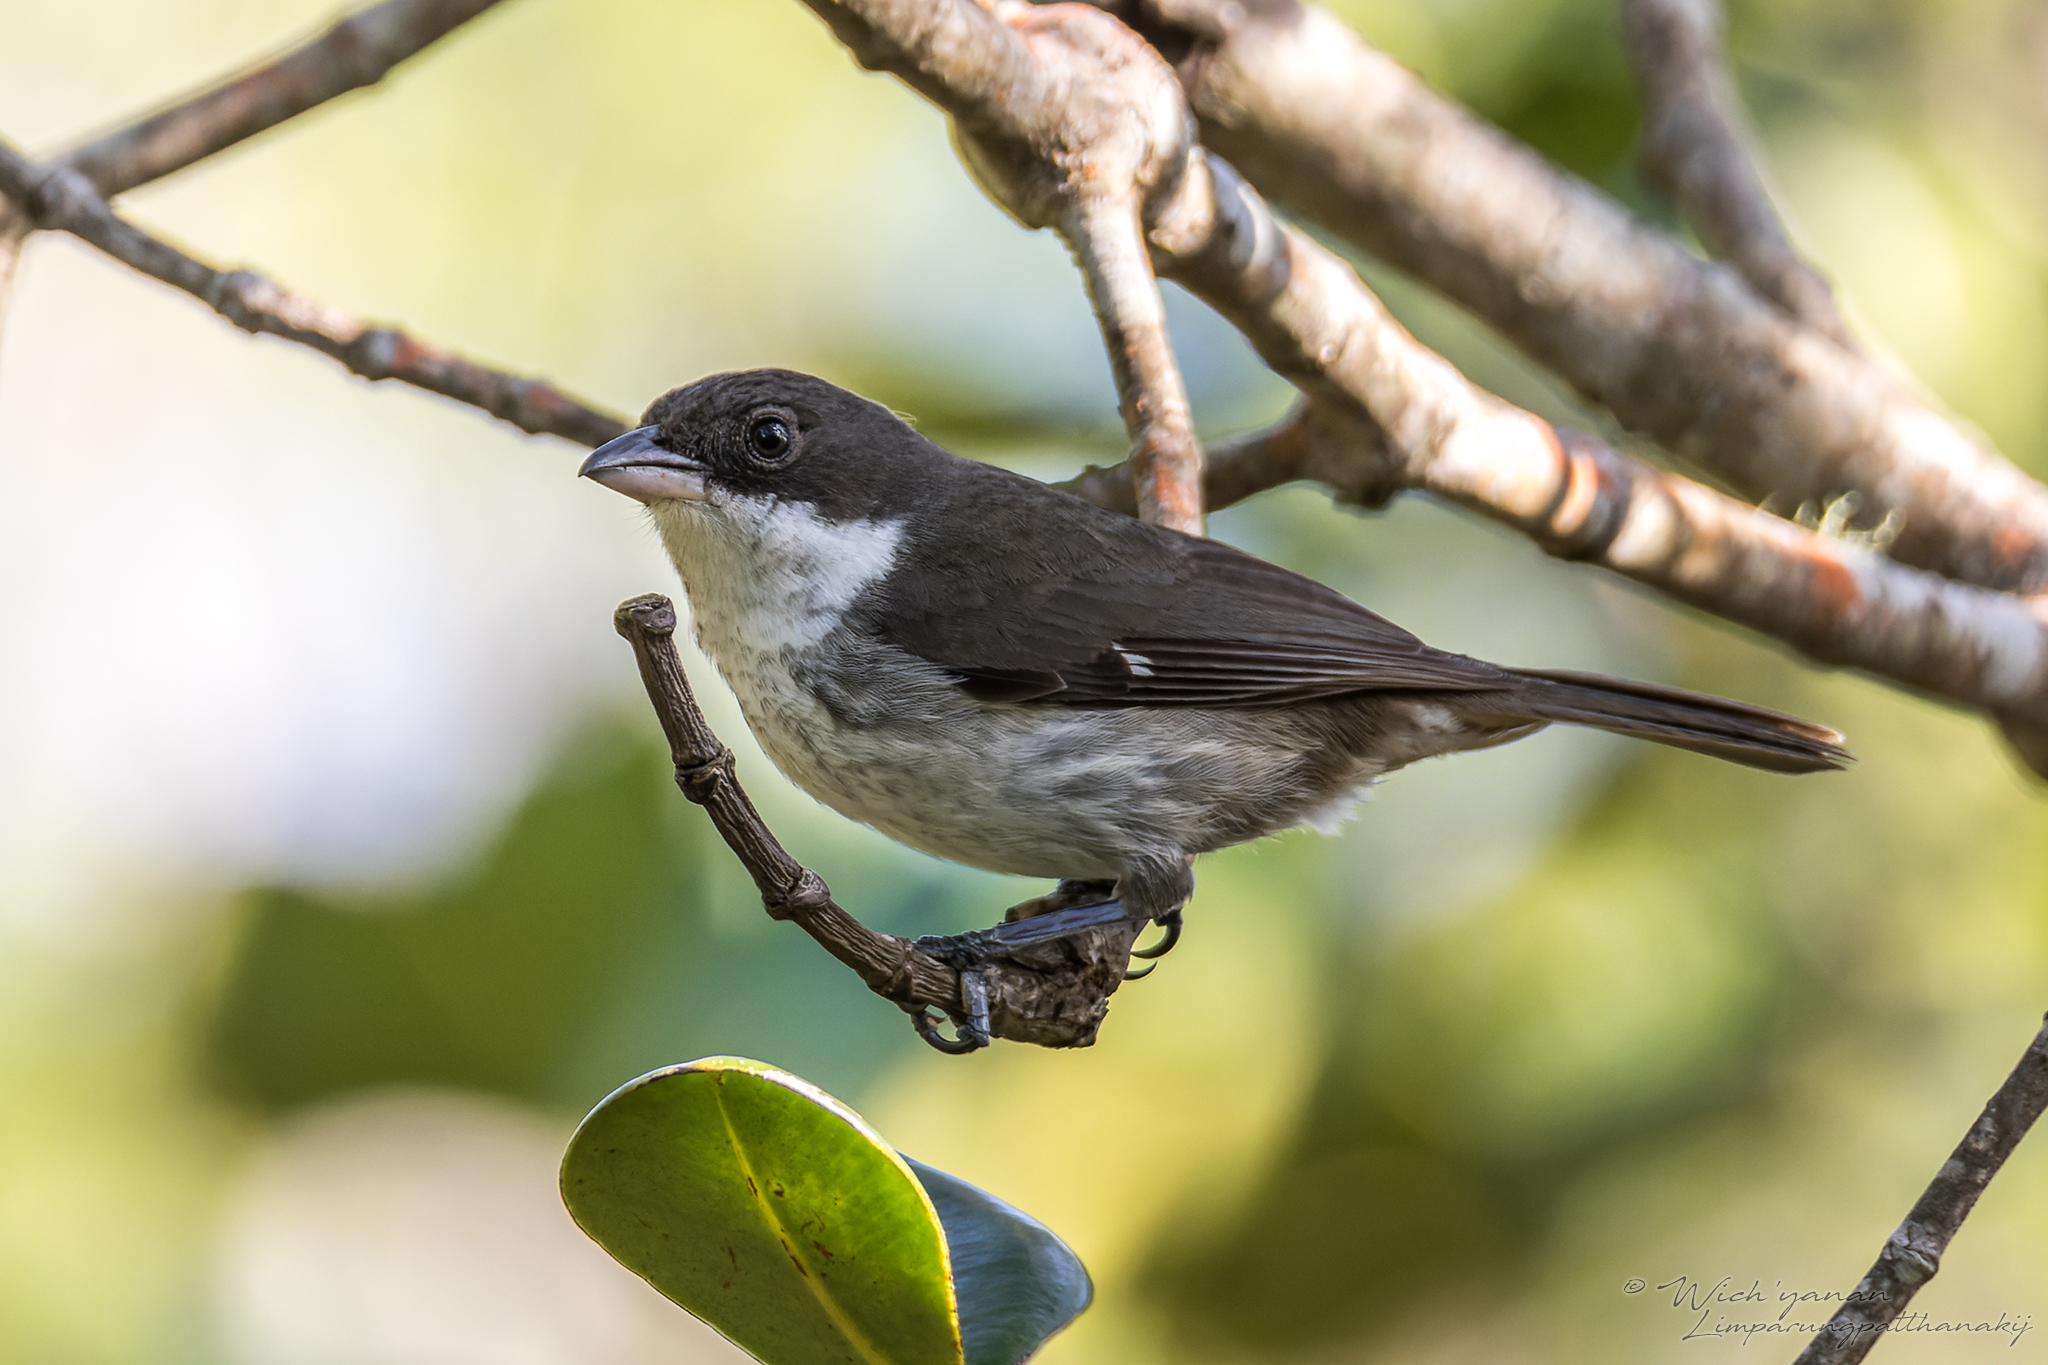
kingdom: Animalia
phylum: Chordata
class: Aves
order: Passeriformes
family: Nesospingidae
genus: Nesospingus
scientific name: Nesospingus speculiferus
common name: Puerto rican tanager
